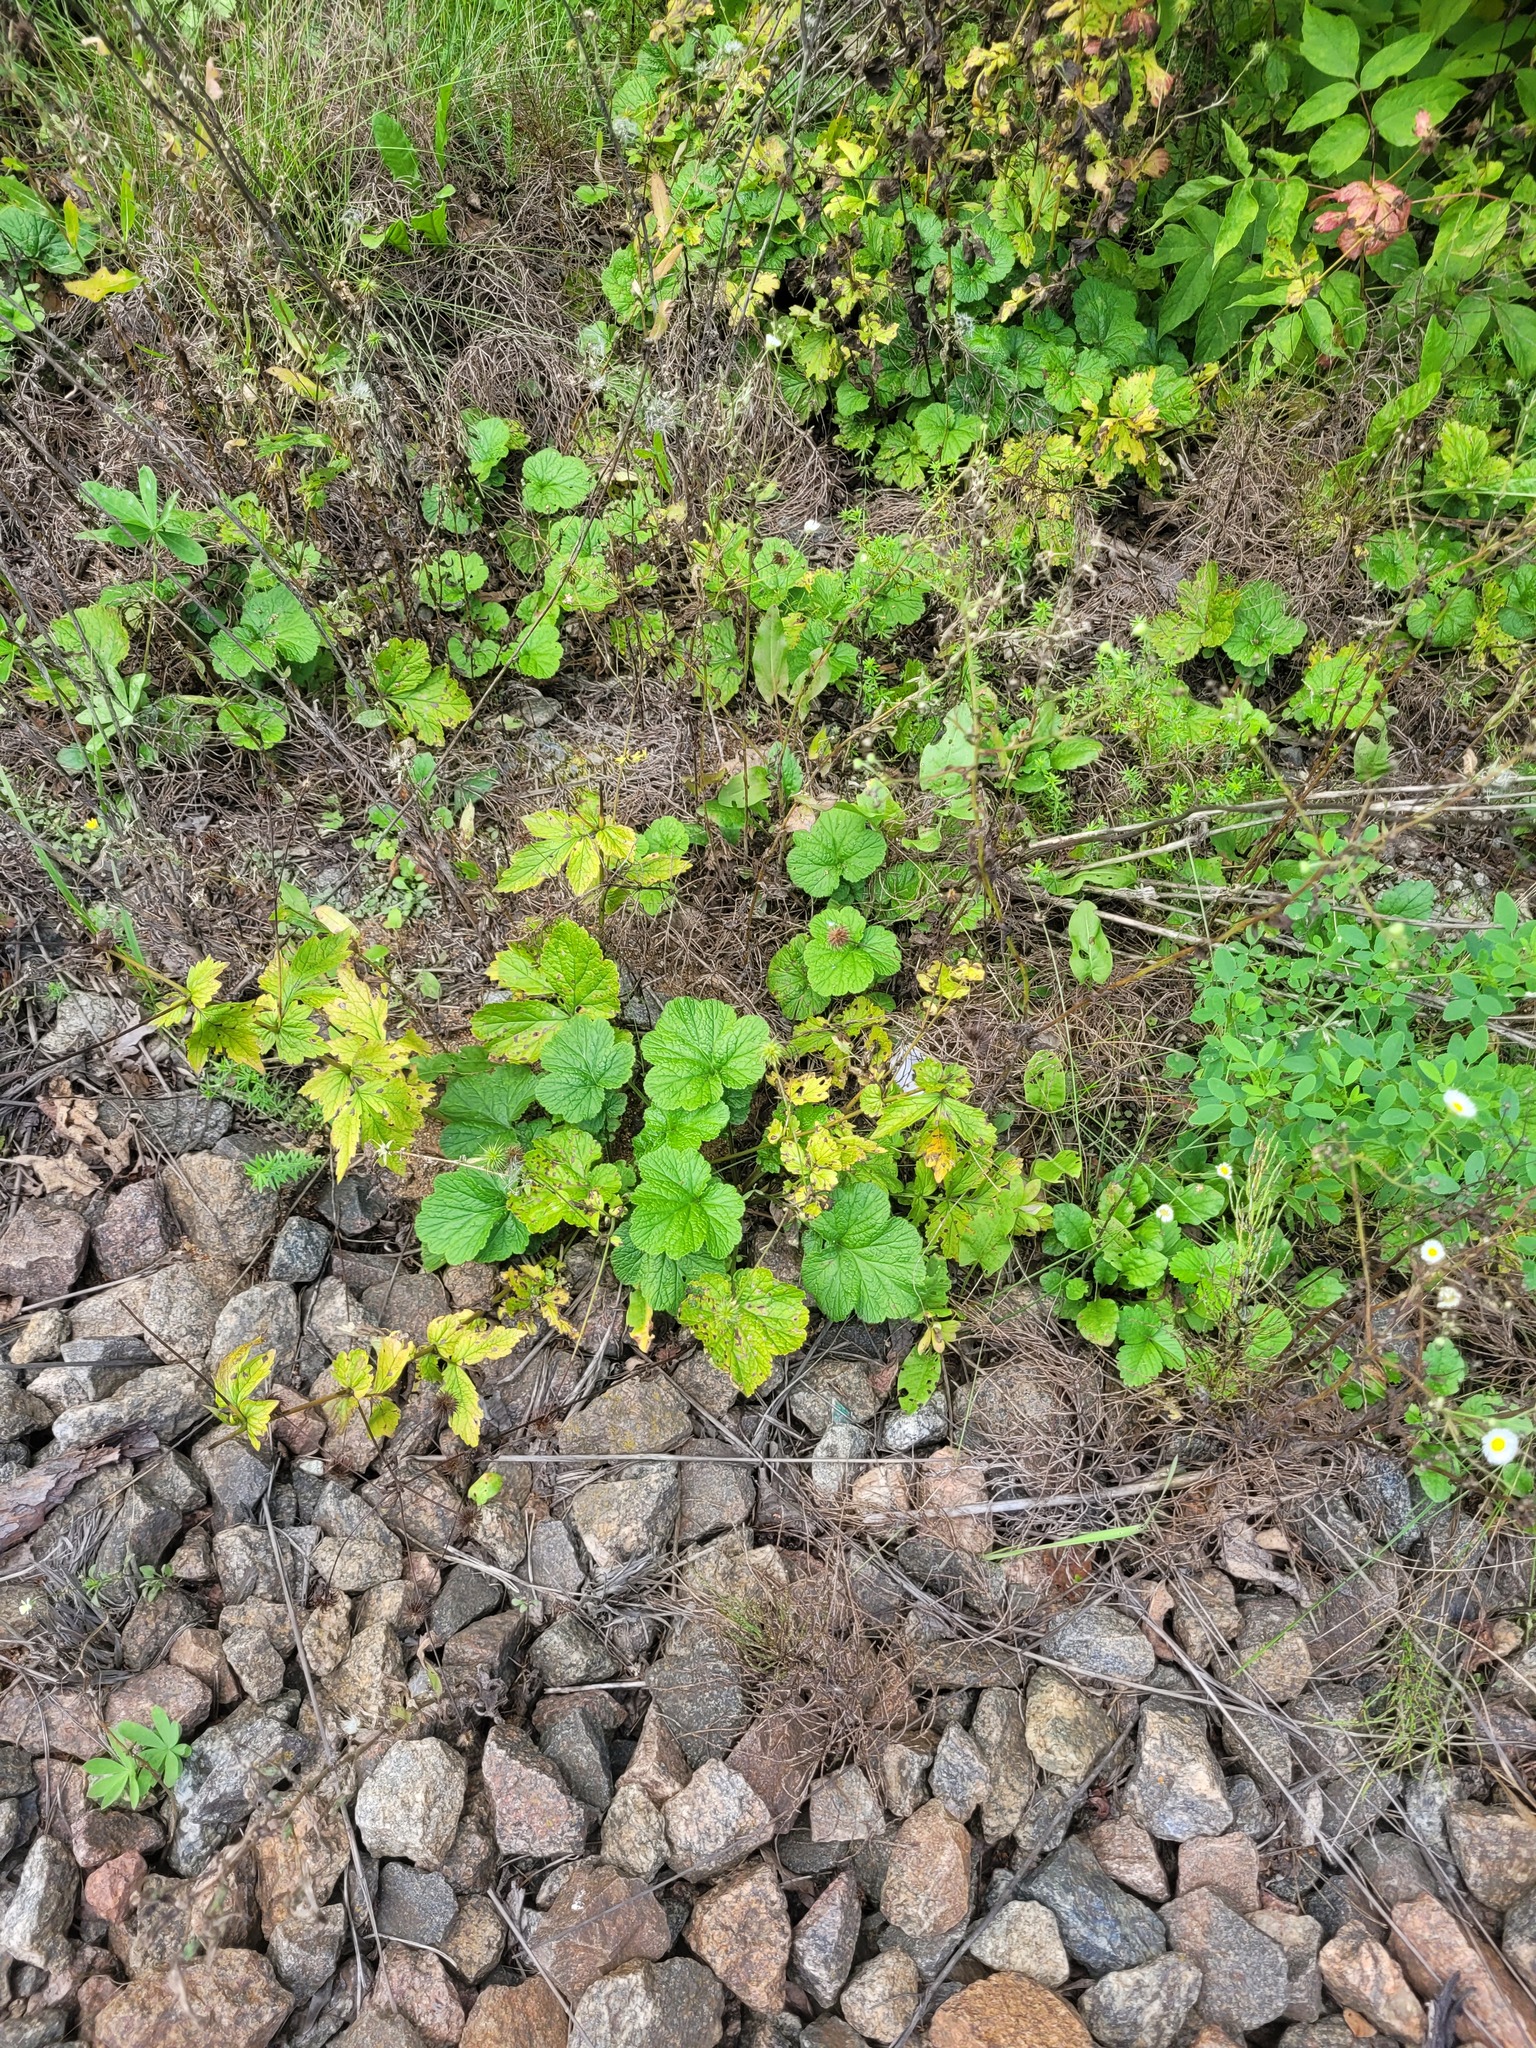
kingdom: Plantae
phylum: Tracheophyta
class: Magnoliopsida
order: Rosales
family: Rosaceae
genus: Geum
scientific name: Geum urbanum
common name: Wood avens
